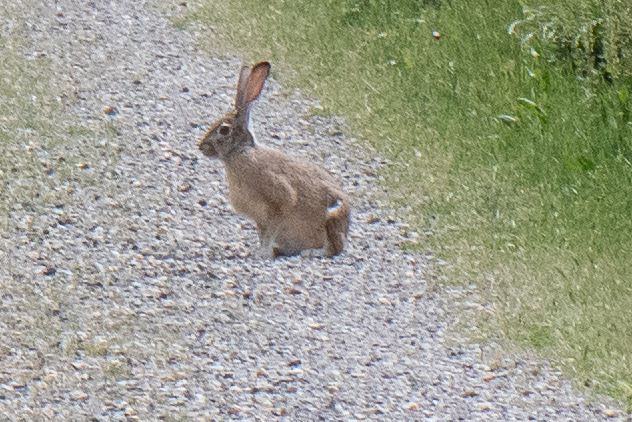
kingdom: Animalia
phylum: Chordata
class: Mammalia
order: Lagomorpha
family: Leporidae
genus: Lepus
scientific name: Lepus californicus
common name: Black-tailed jackrabbit
